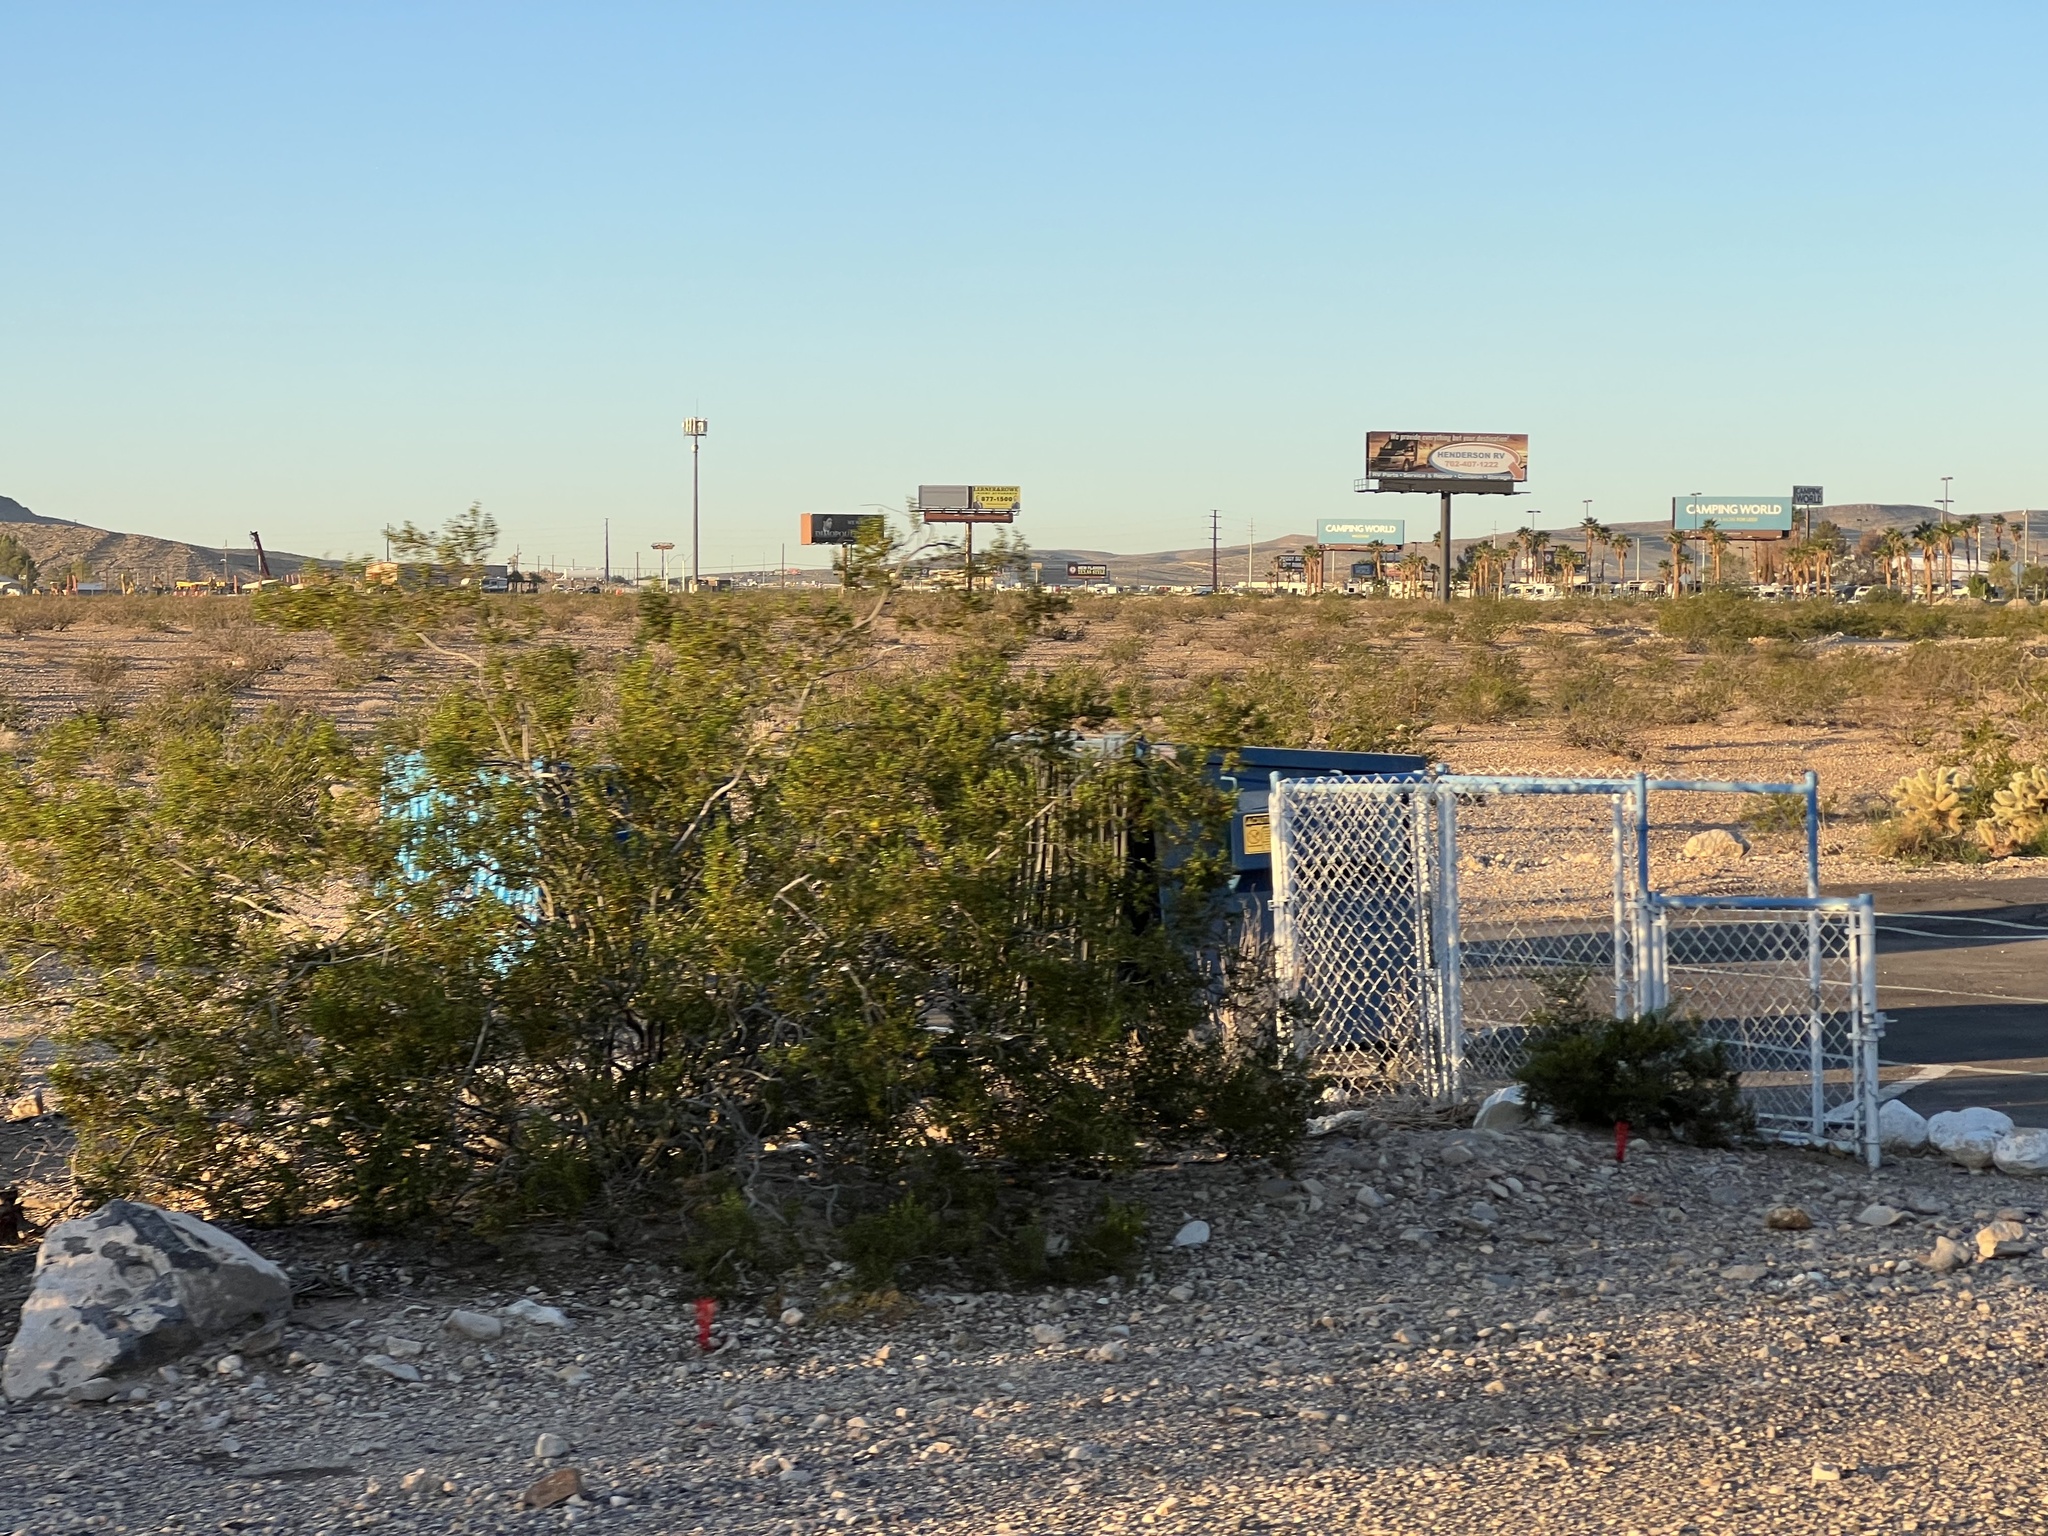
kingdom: Plantae
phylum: Tracheophyta
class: Magnoliopsida
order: Zygophyllales
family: Zygophyllaceae
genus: Larrea
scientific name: Larrea tridentata
